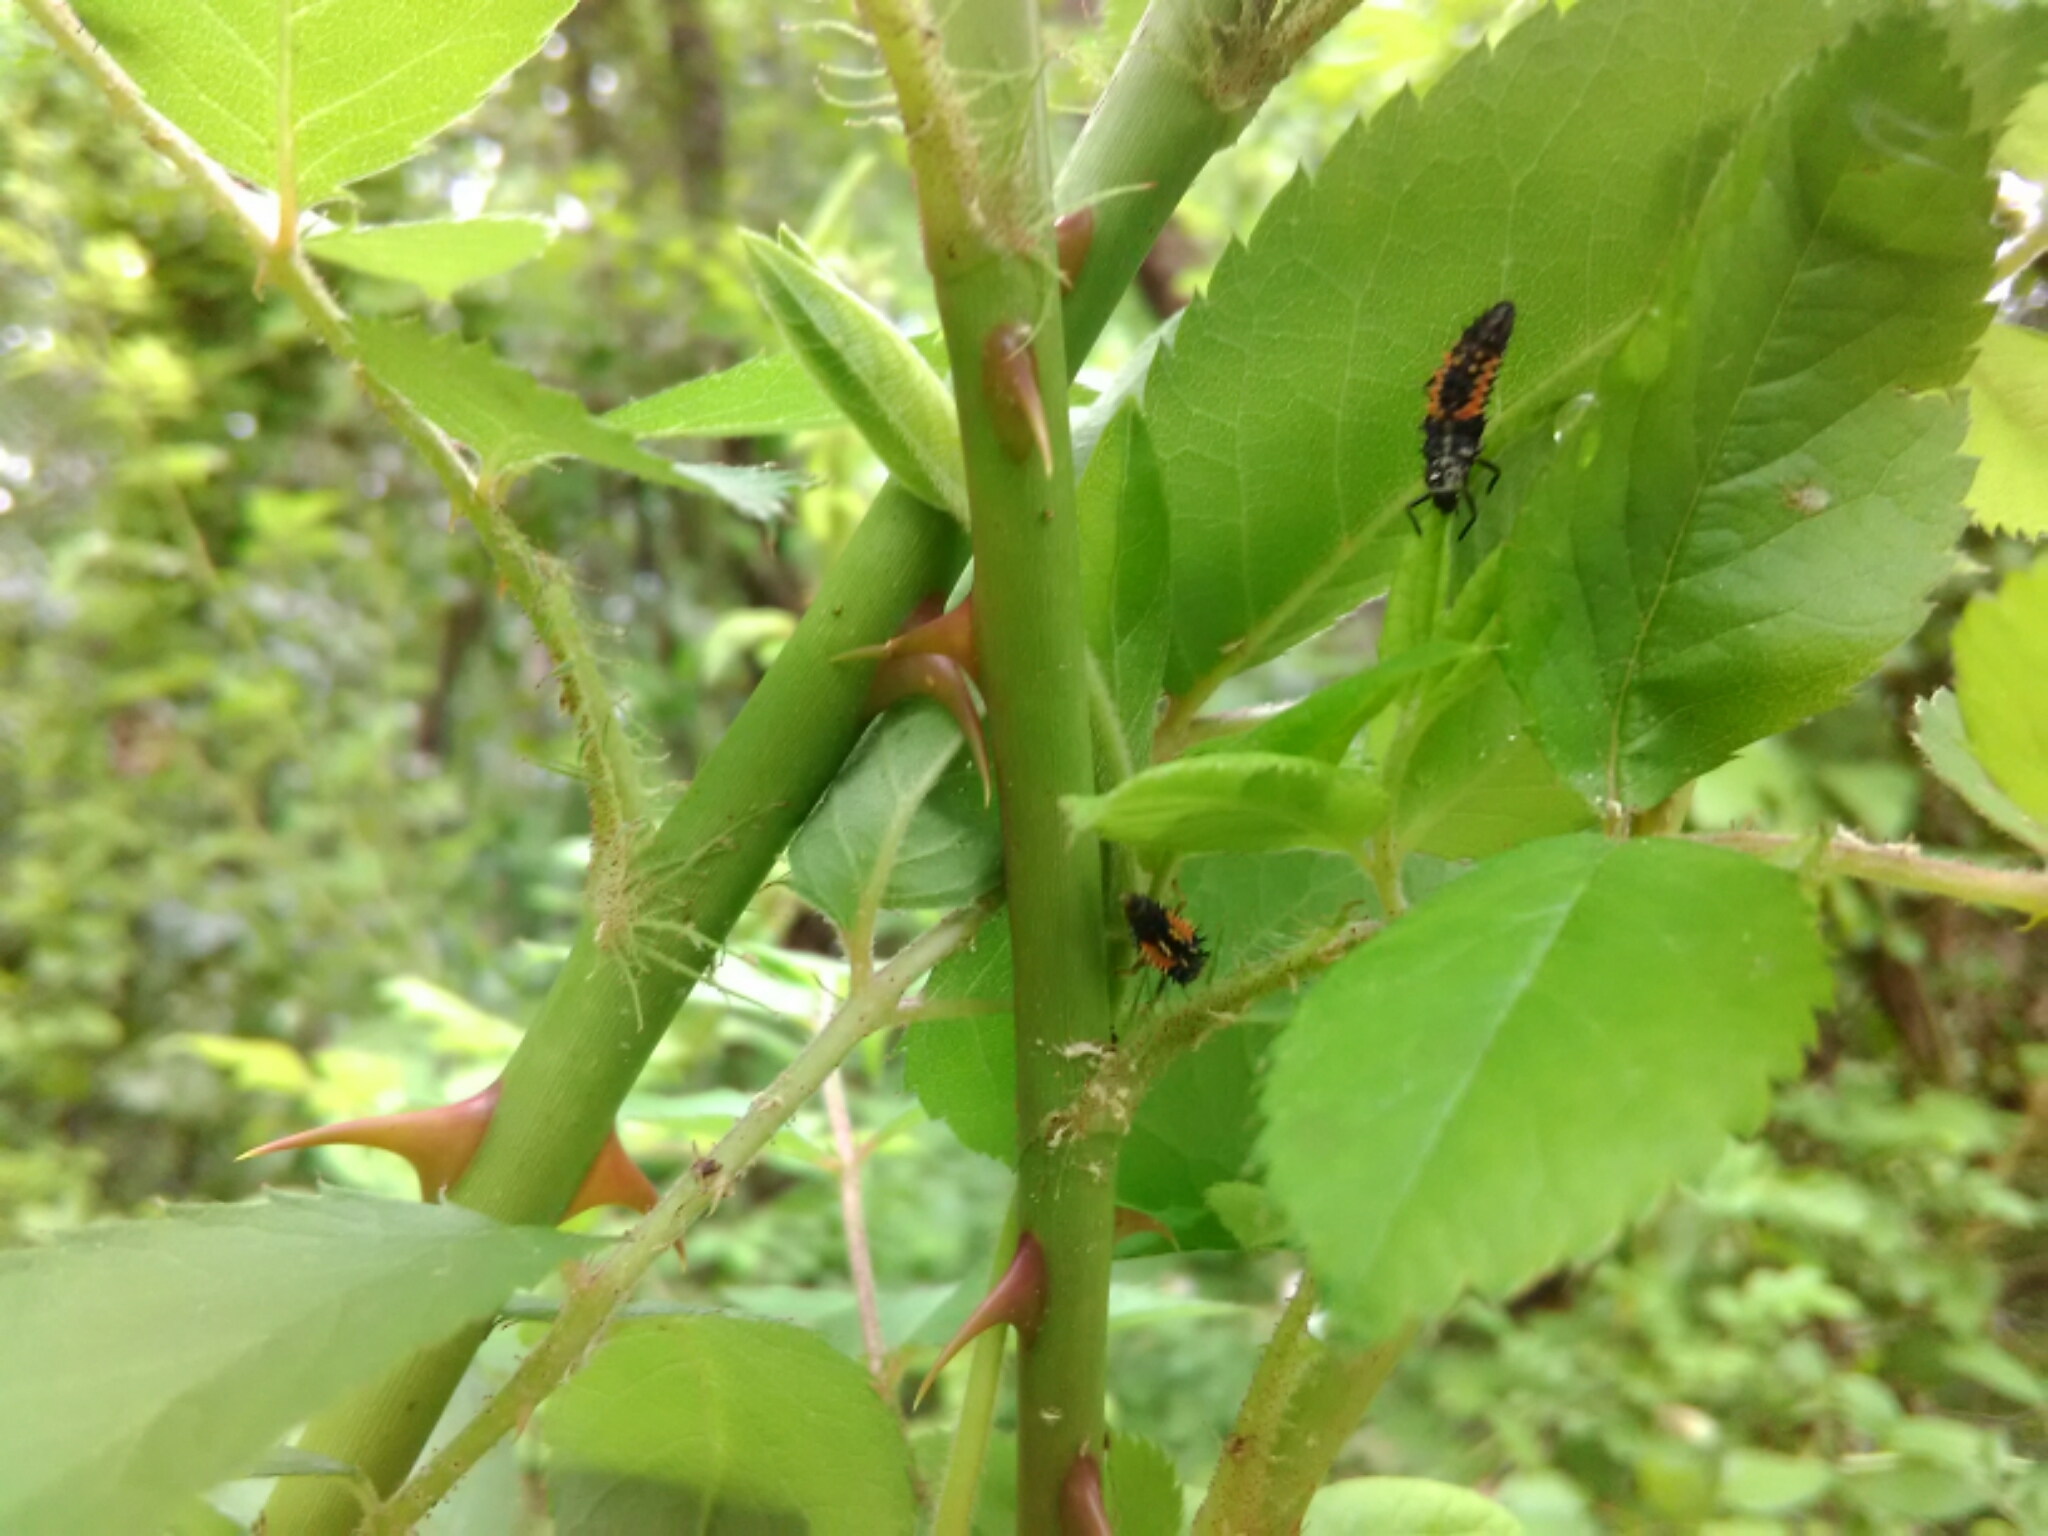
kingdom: Animalia
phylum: Arthropoda
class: Insecta
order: Coleoptera
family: Coccinellidae
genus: Harmonia
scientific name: Harmonia axyridis
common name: Harlequin ladybird
